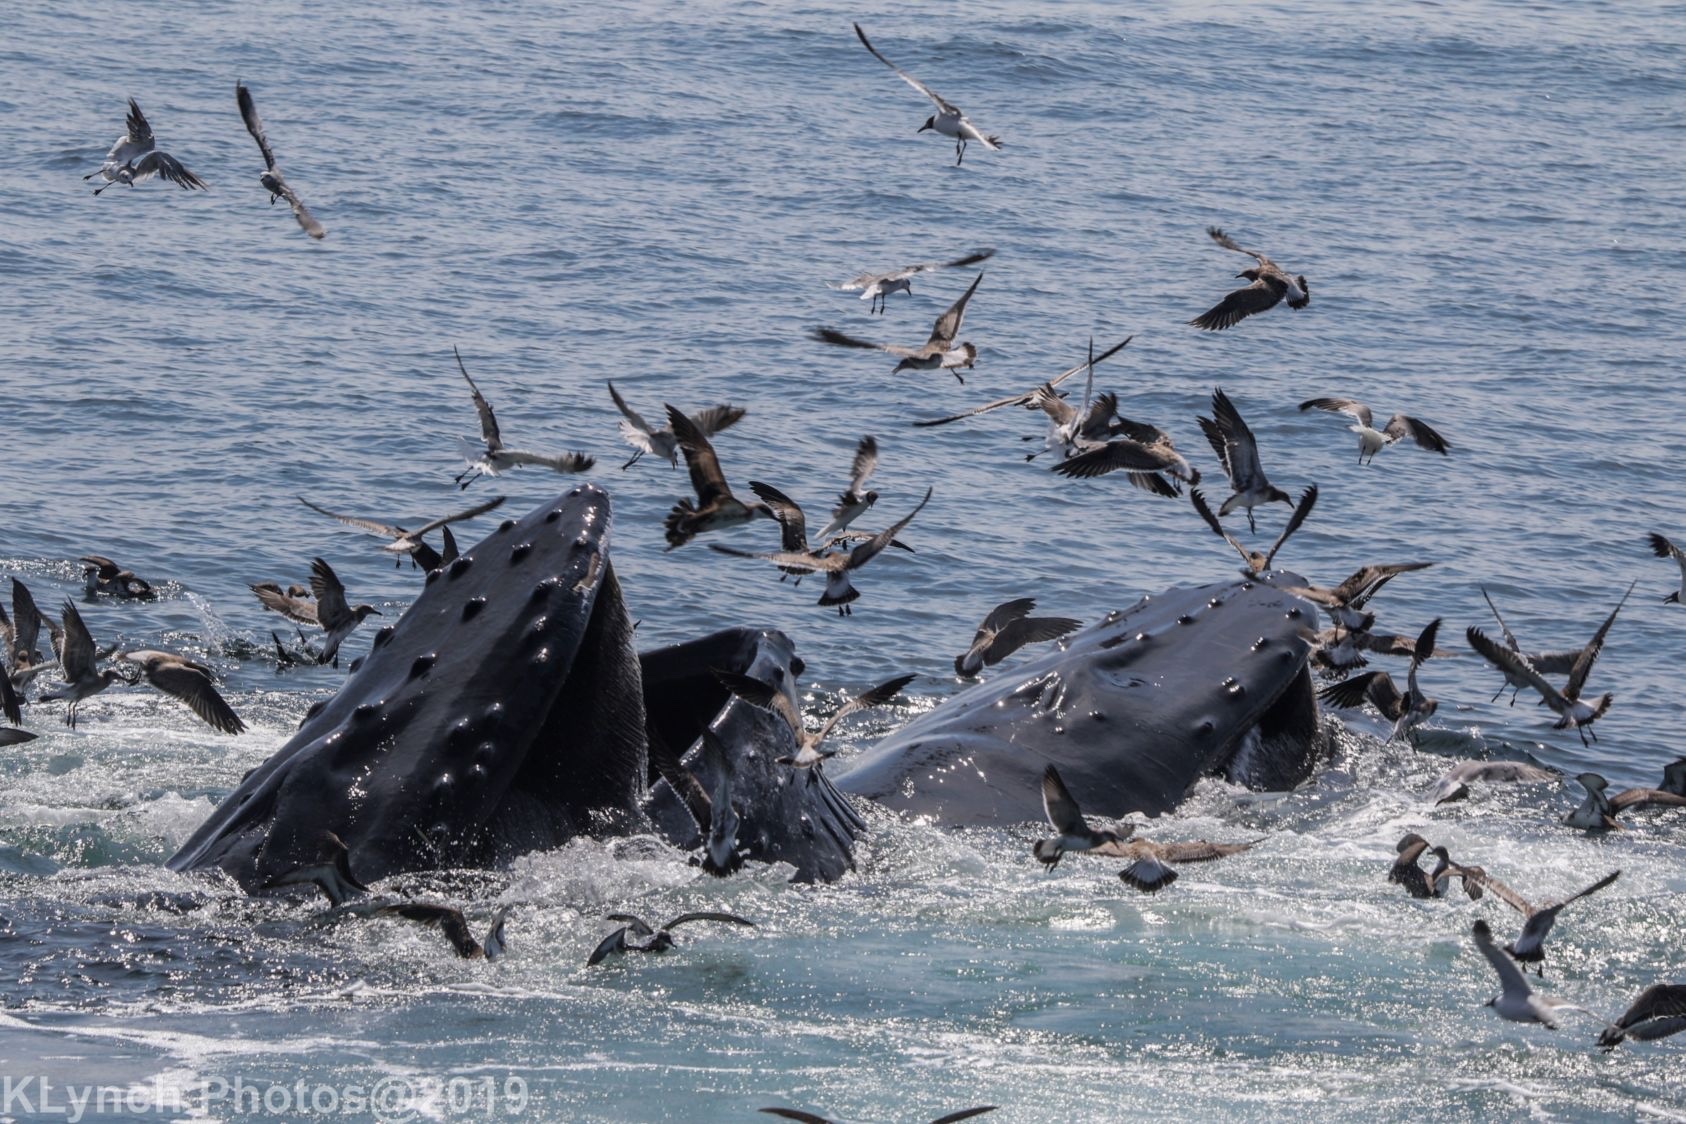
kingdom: Animalia
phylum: Chordata
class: Mammalia
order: Cetacea
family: Balaenopteridae
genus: Megaptera
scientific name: Megaptera novaeangliae
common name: Humpback whale
